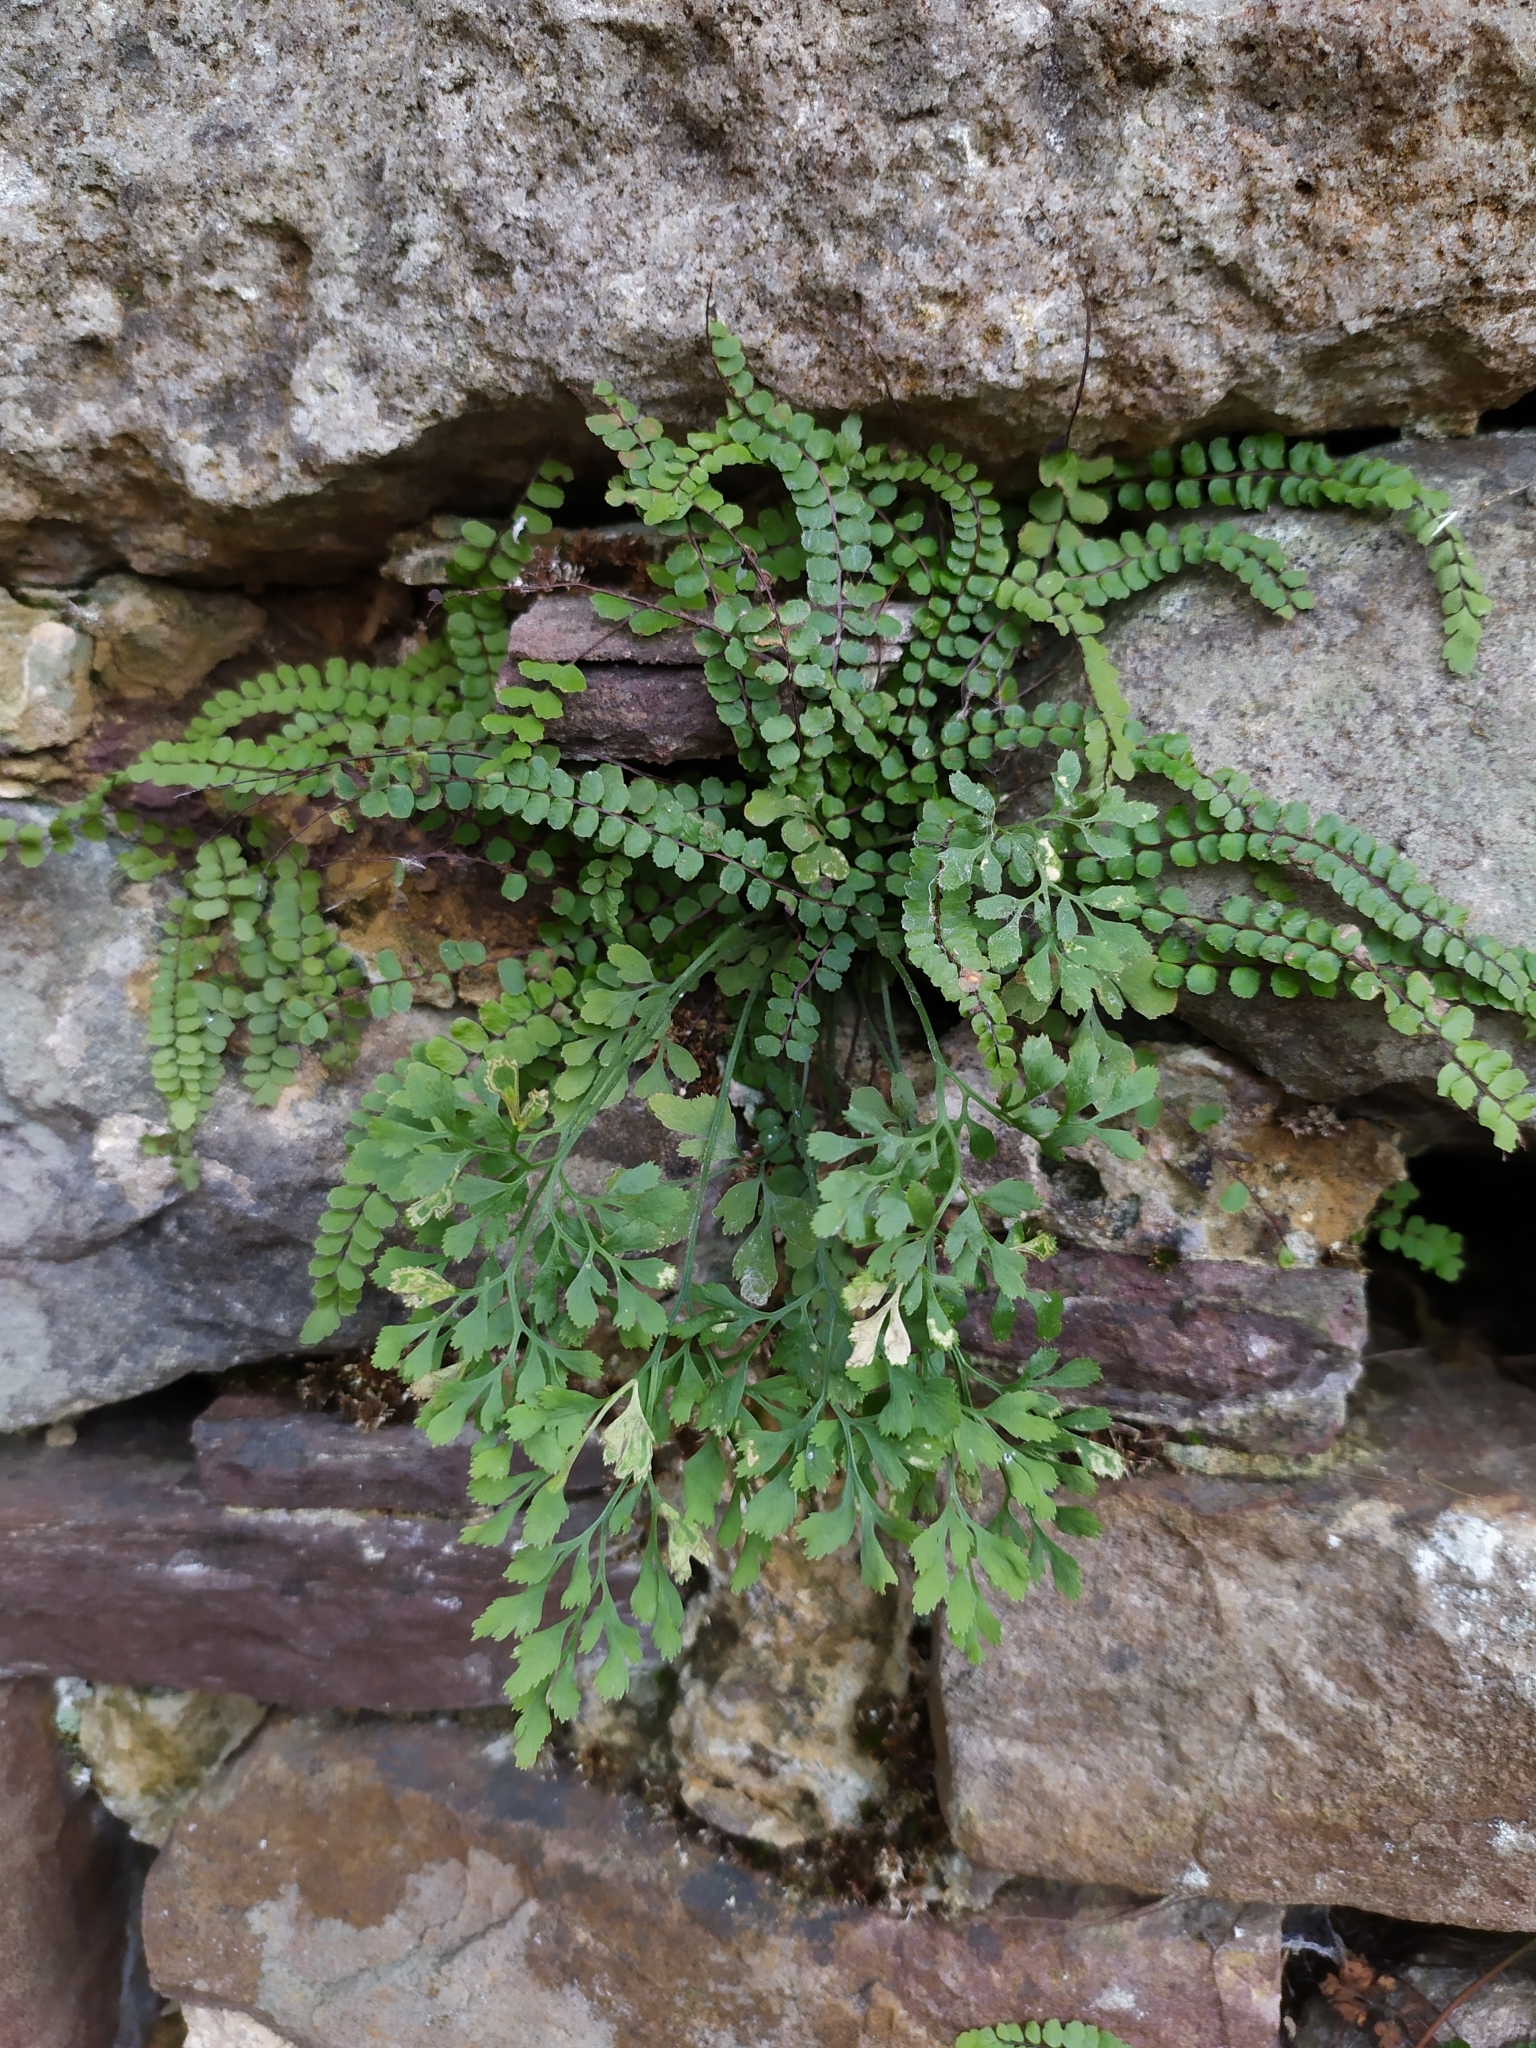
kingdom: Plantae
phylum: Tracheophyta
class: Polypodiopsida
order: Polypodiales
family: Aspleniaceae
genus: Asplenium
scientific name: Asplenium ruta-muraria
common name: Wall-rue
